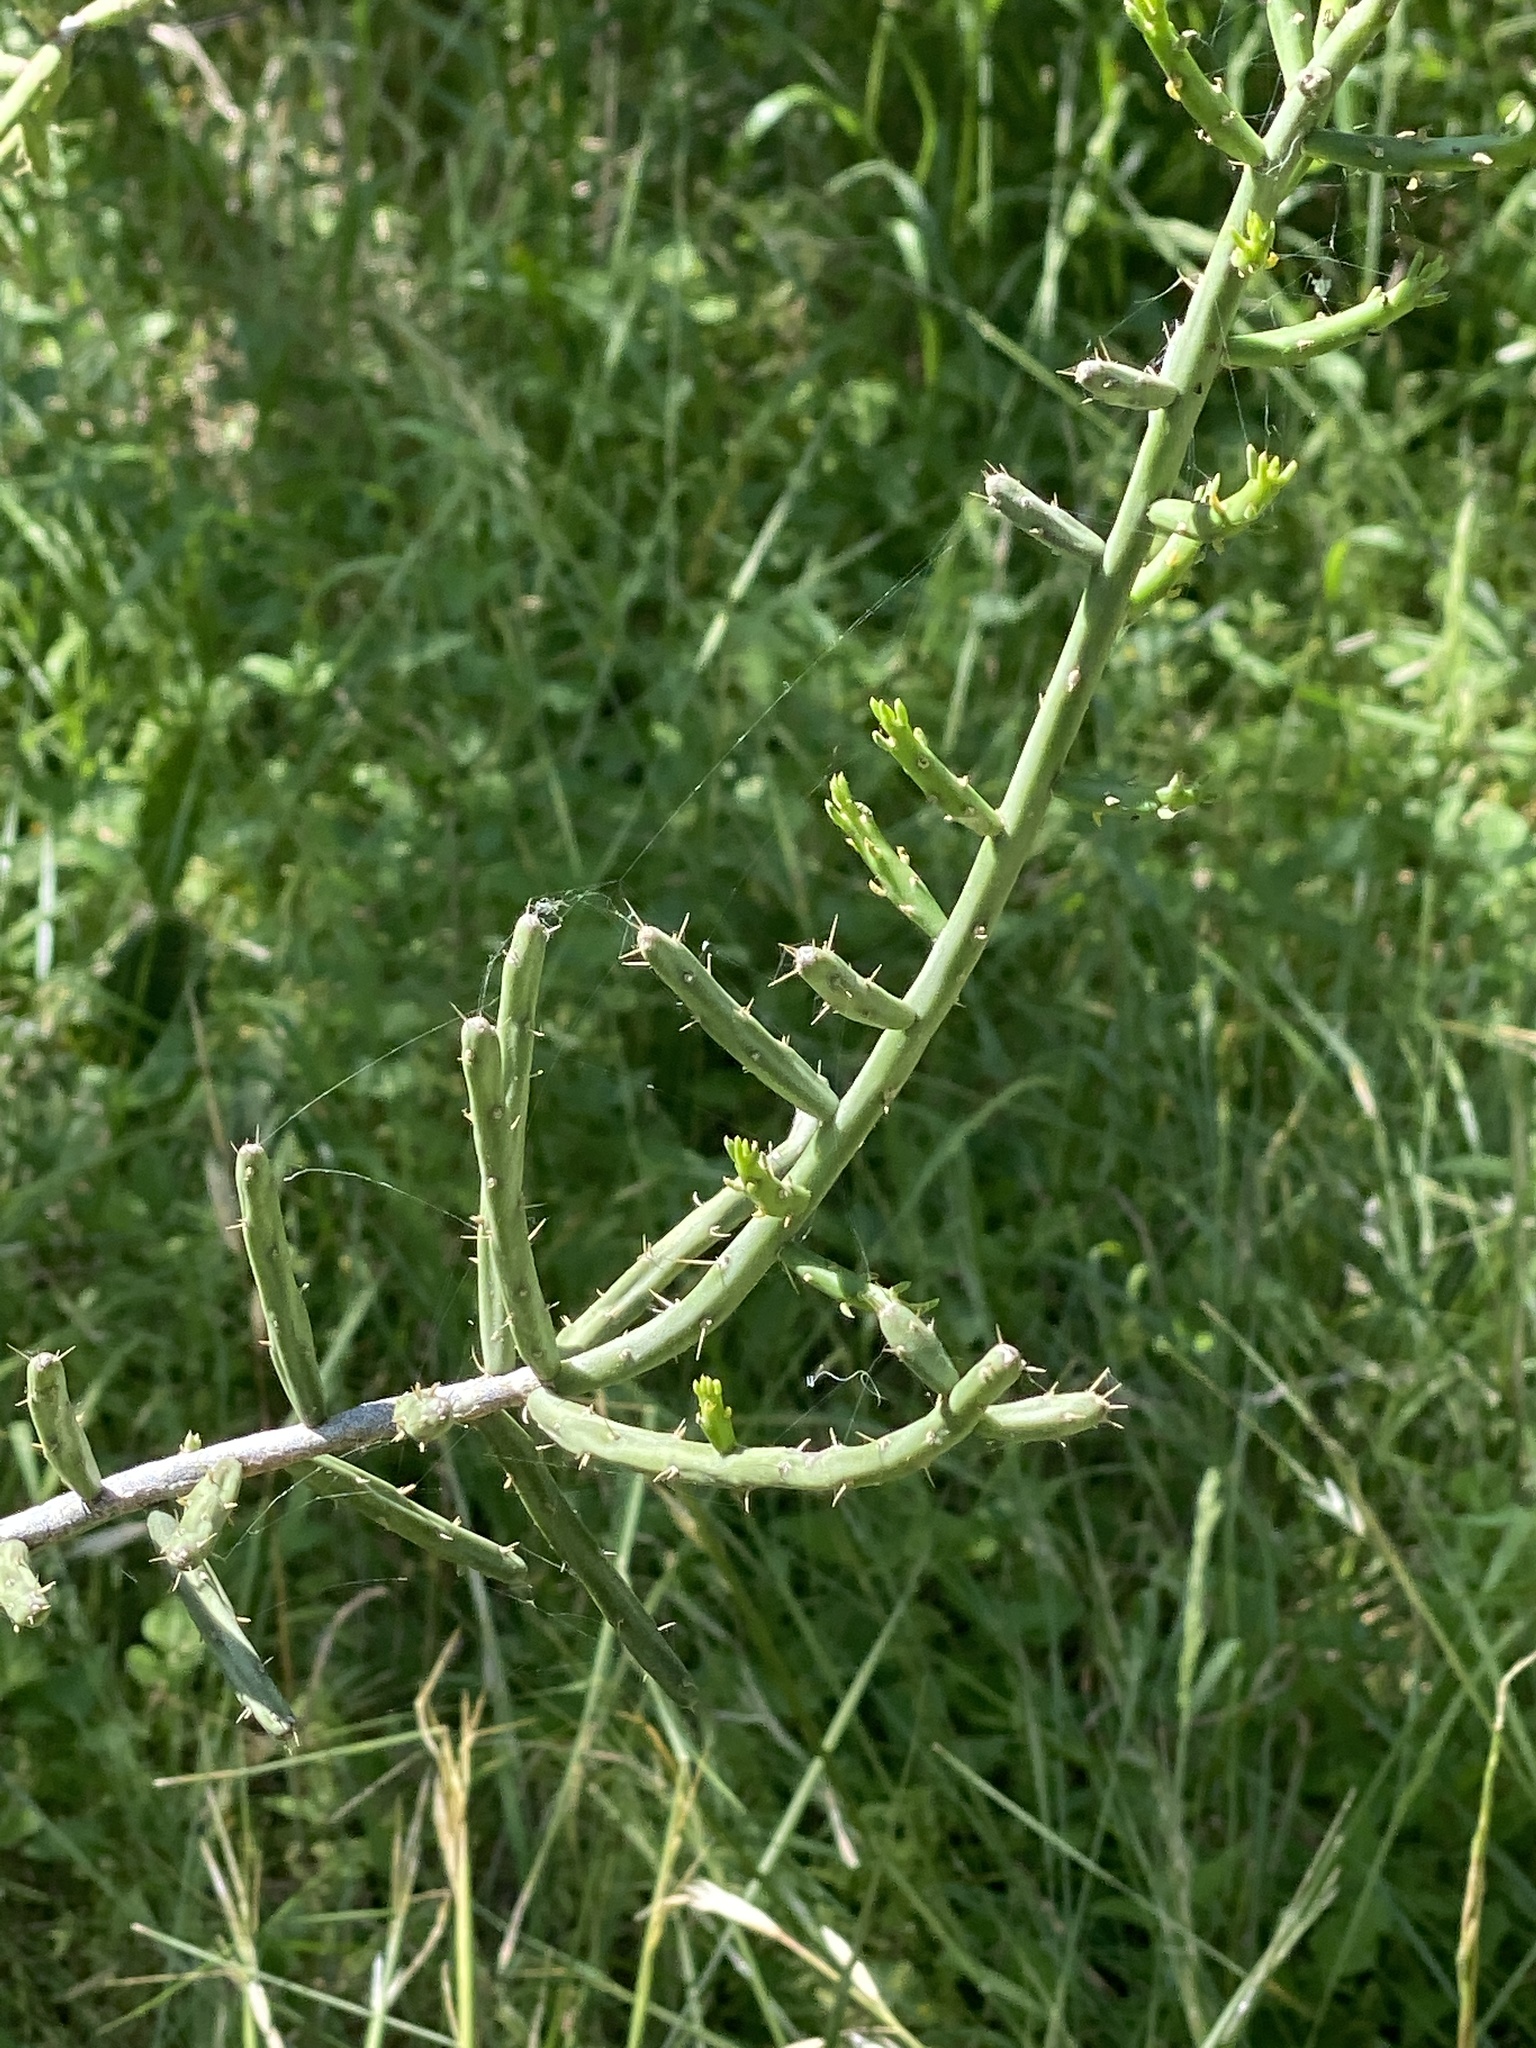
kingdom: Plantae
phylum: Tracheophyta
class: Magnoliopsida
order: Caryophyllales
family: Cactaceae
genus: Cylindropuntia
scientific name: Cylindropuntia leptocaulis
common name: Christmas cactus
